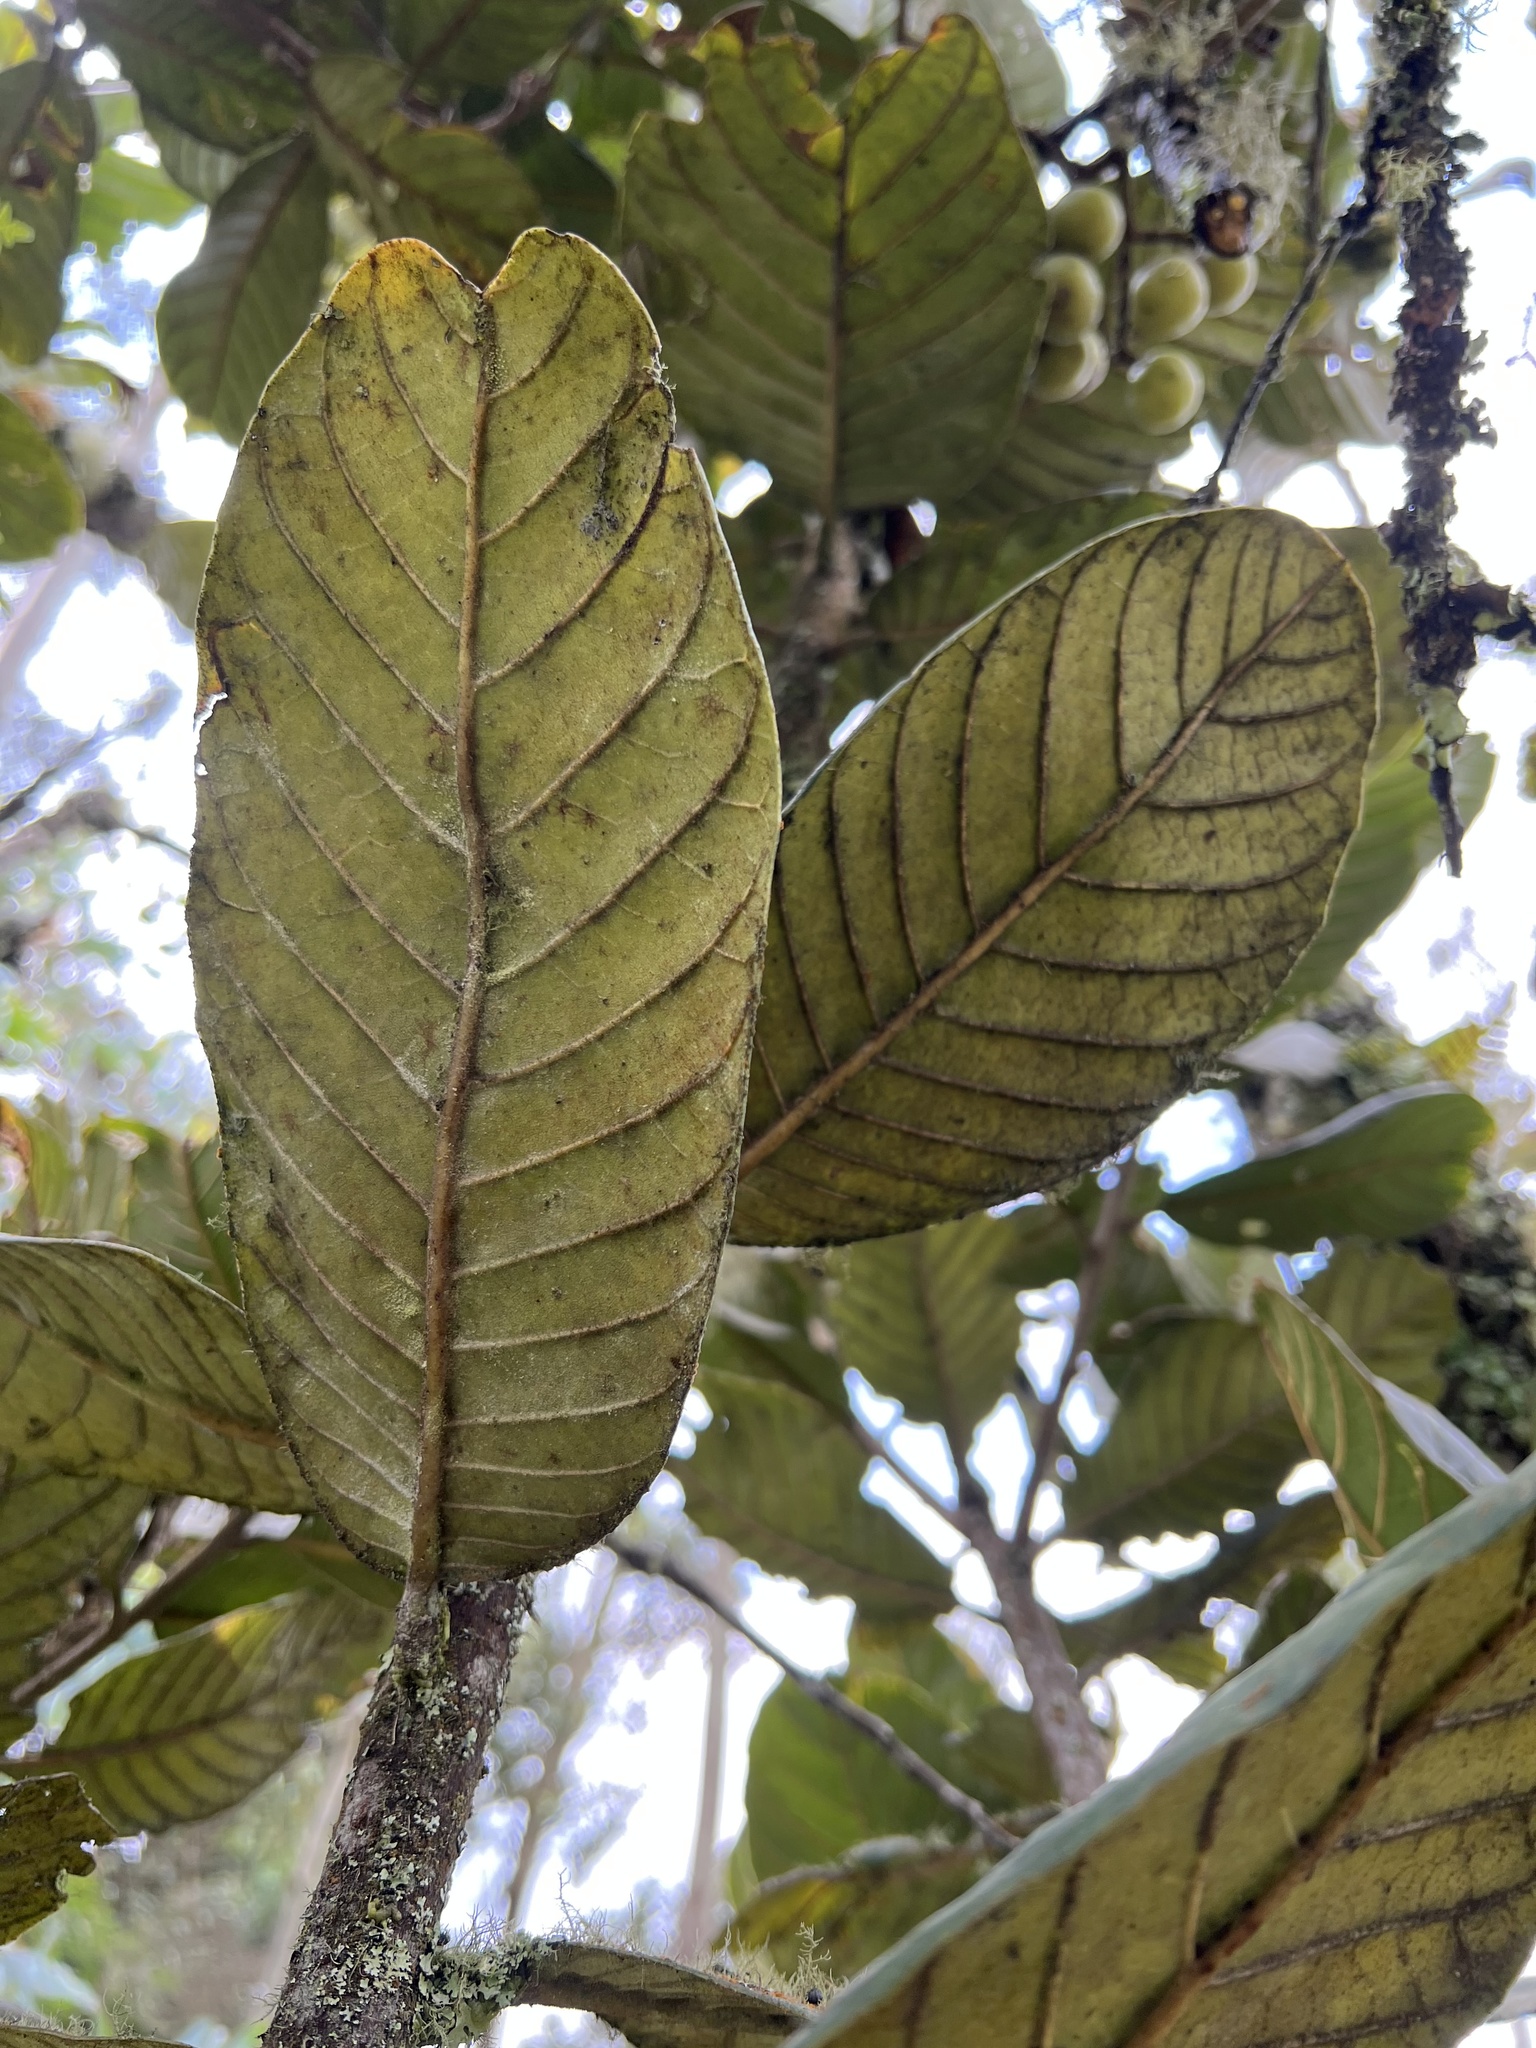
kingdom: Plantae
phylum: Tracheophyta
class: Magnoliopsida
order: Proteales
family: Sabiaceae
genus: Meliosma
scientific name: Meliosma frondosa
